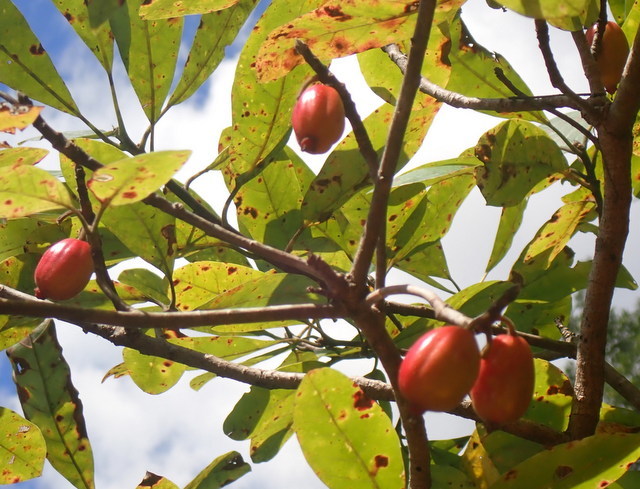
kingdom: Plantae
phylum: Tracheophyta
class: Magnoliopsida
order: Cornales
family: Nyssaceae
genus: Nyssa
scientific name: Nyssa ogeche
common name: Ogeechee tupelo
